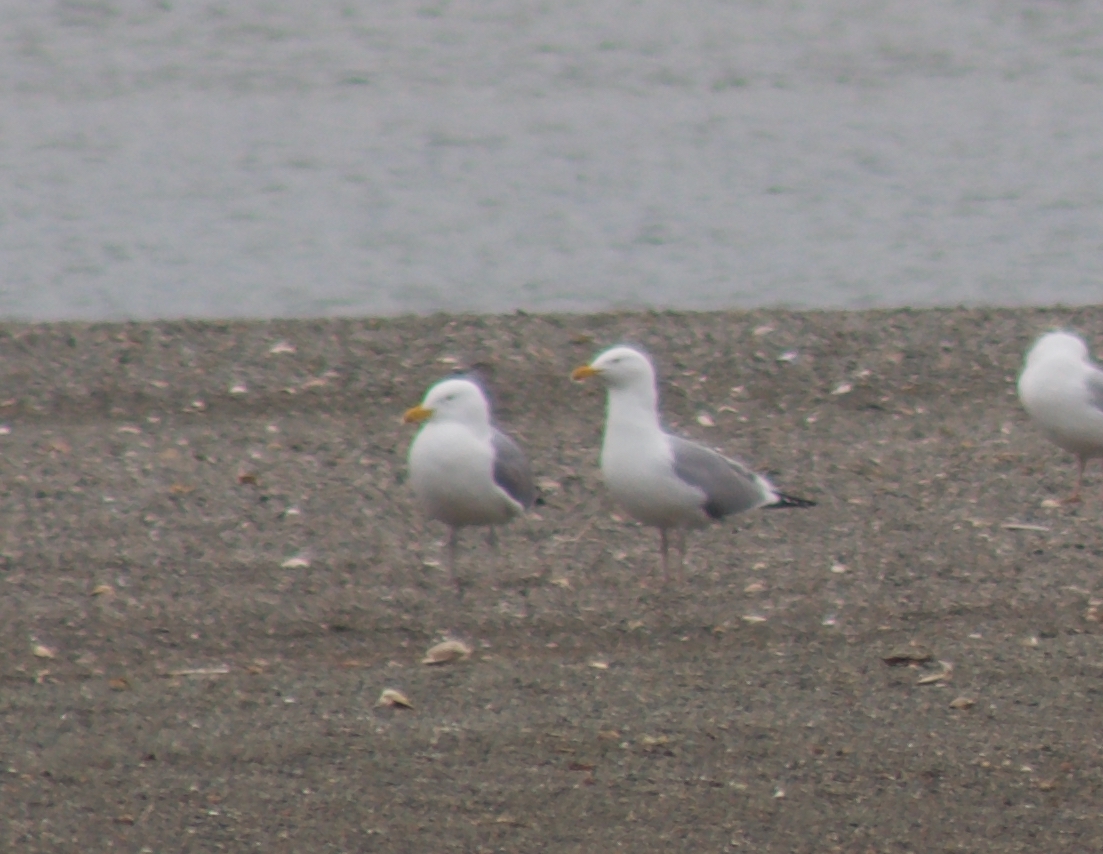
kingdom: Animalia
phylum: Chordata
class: Aves
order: Charadriiformes
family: Laridae
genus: Larus
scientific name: Larus argentatus
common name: Herring gull
